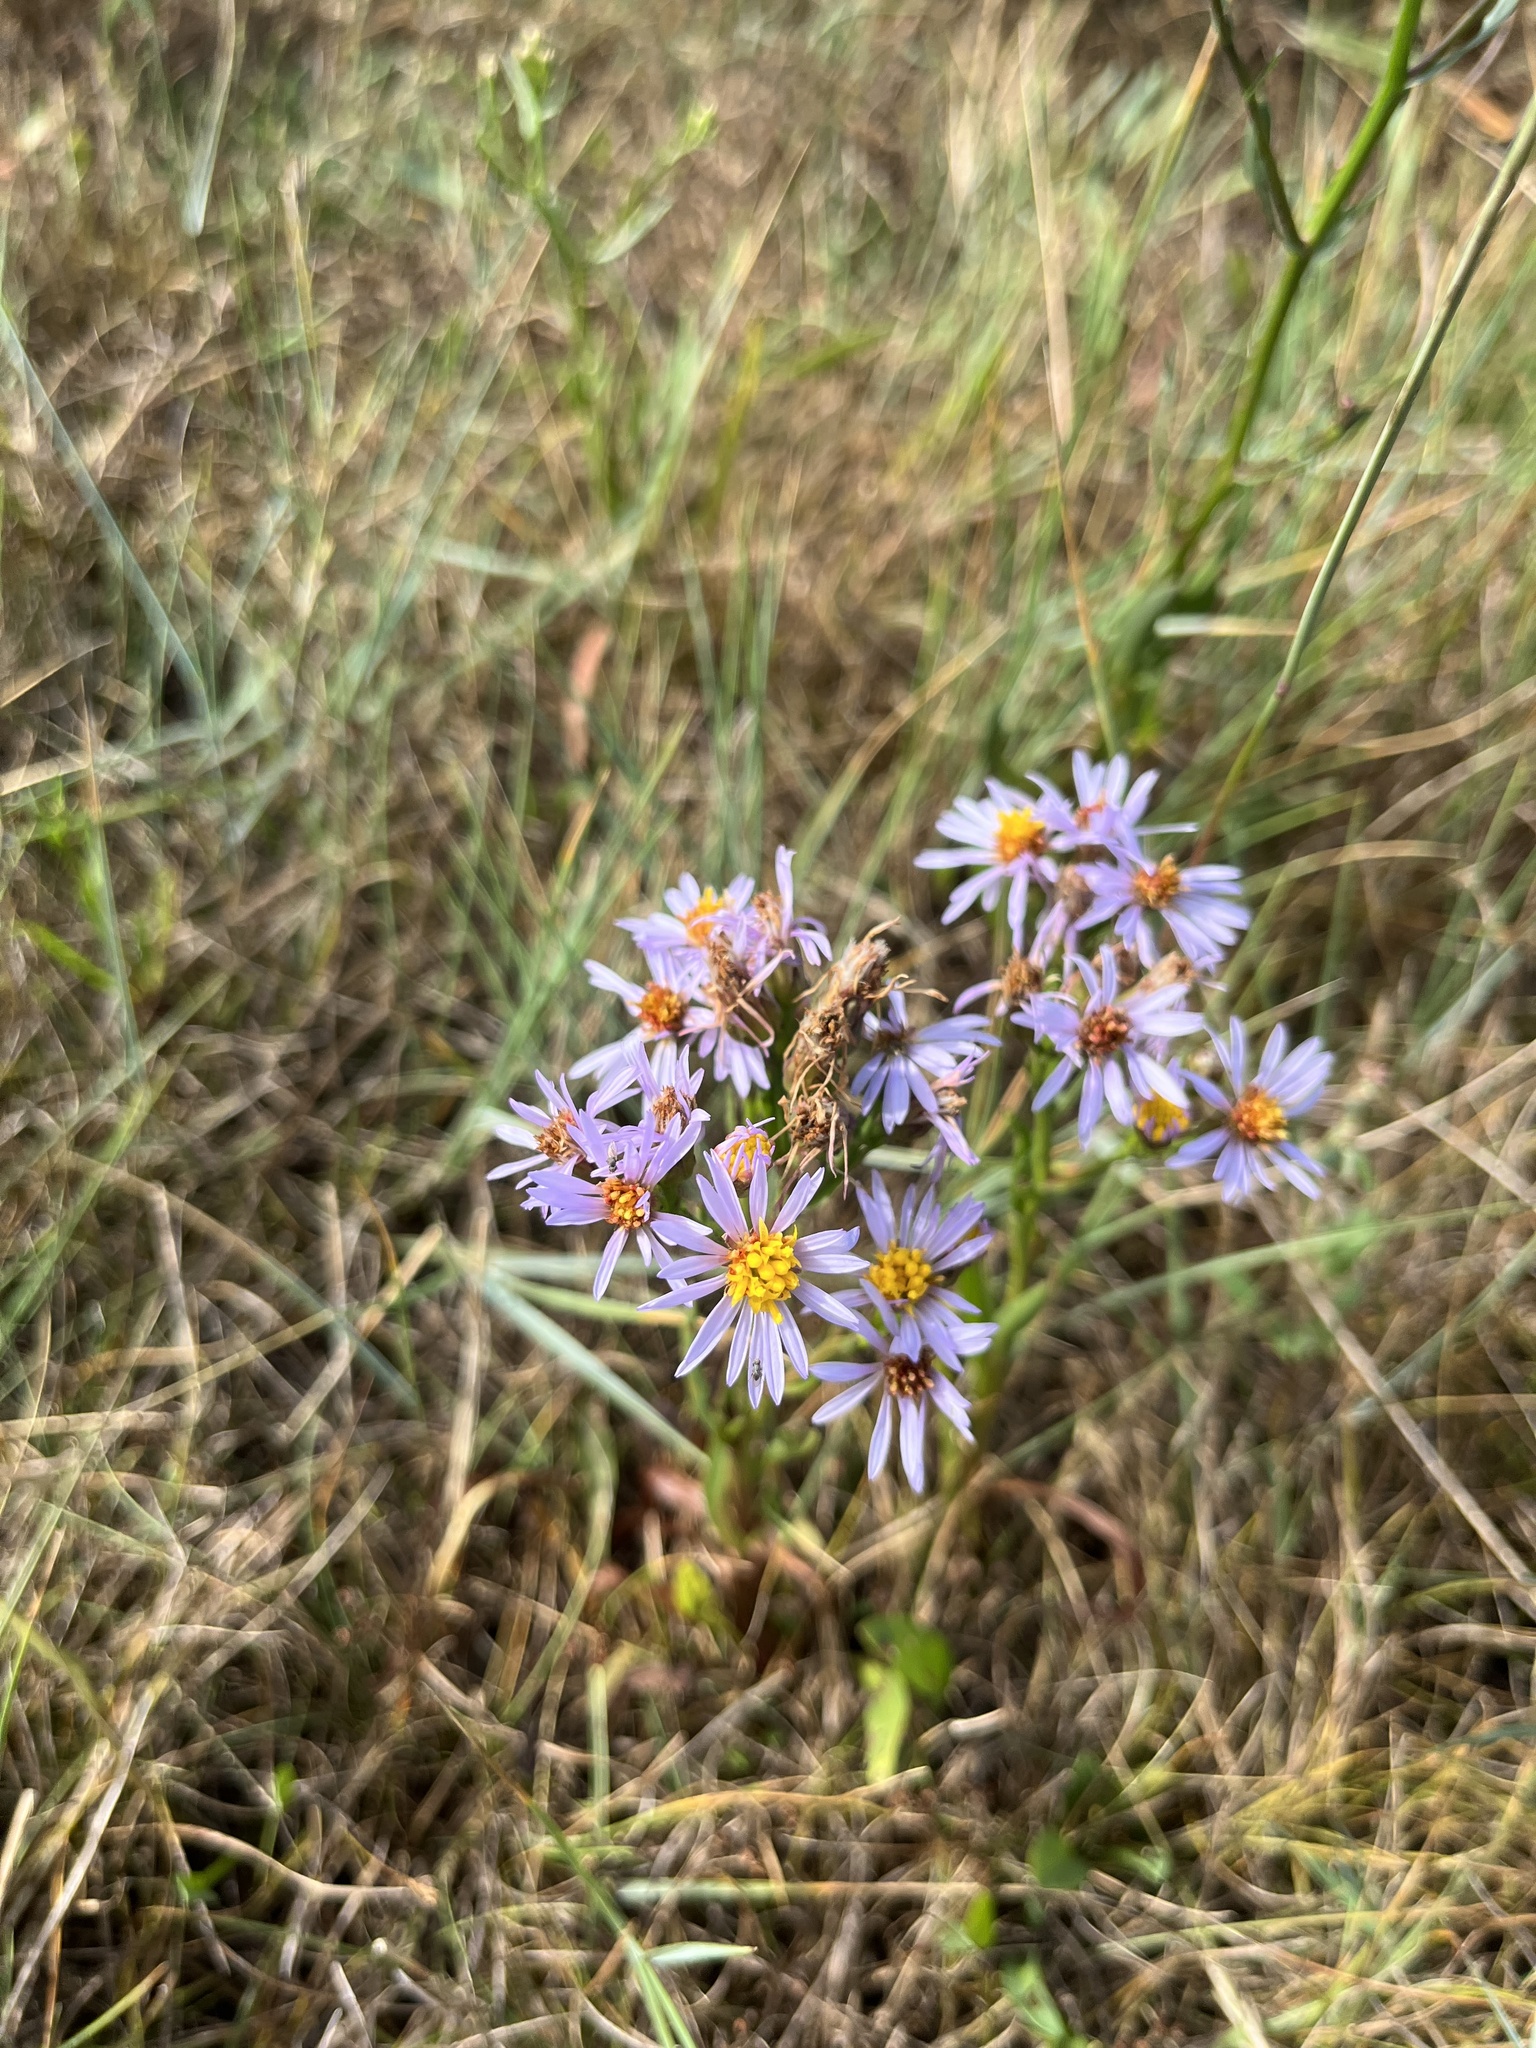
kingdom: Plantae
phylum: Tracheophyta
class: Magnoliopsida
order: Asterales
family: Asteraceae
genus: Tripolium
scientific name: Tripolium pannonicum
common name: Sea aster
